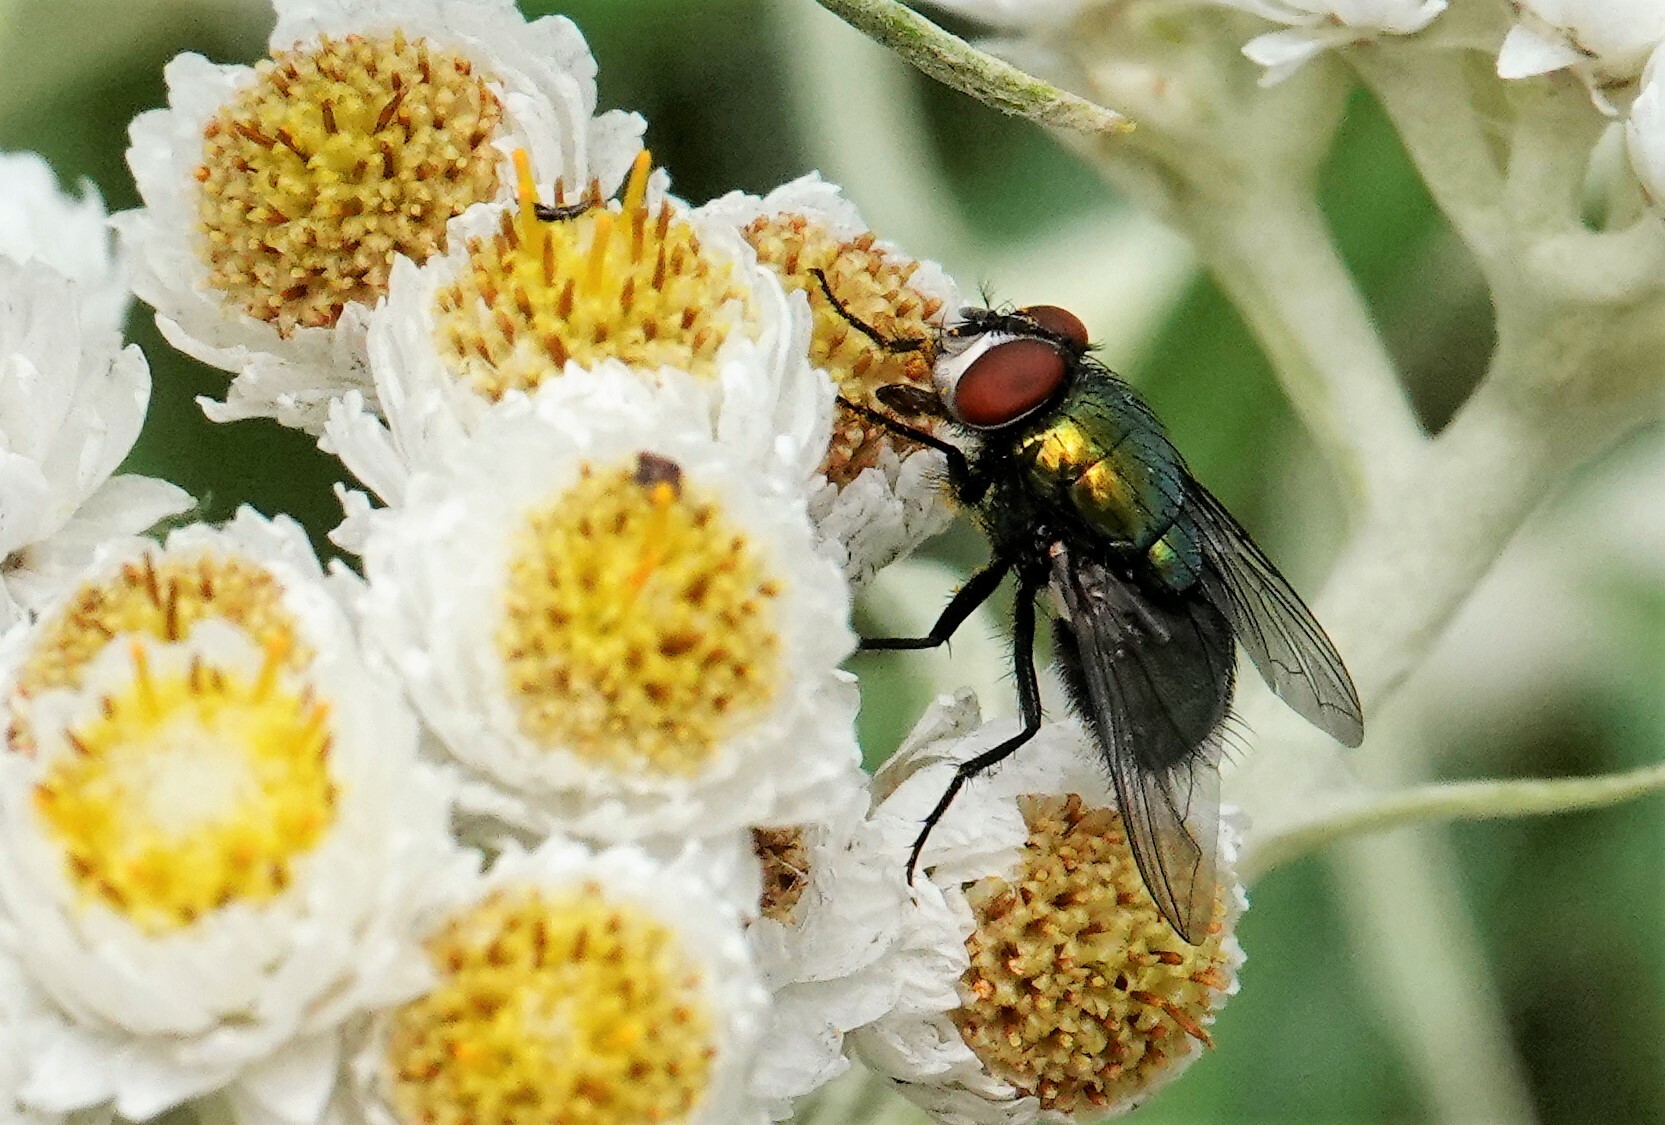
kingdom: Animalia
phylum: Arthropoda
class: Insecta
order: Diptera
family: Calliphoridae
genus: Lucilia
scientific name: Lucilia sericata
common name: Blow fly
